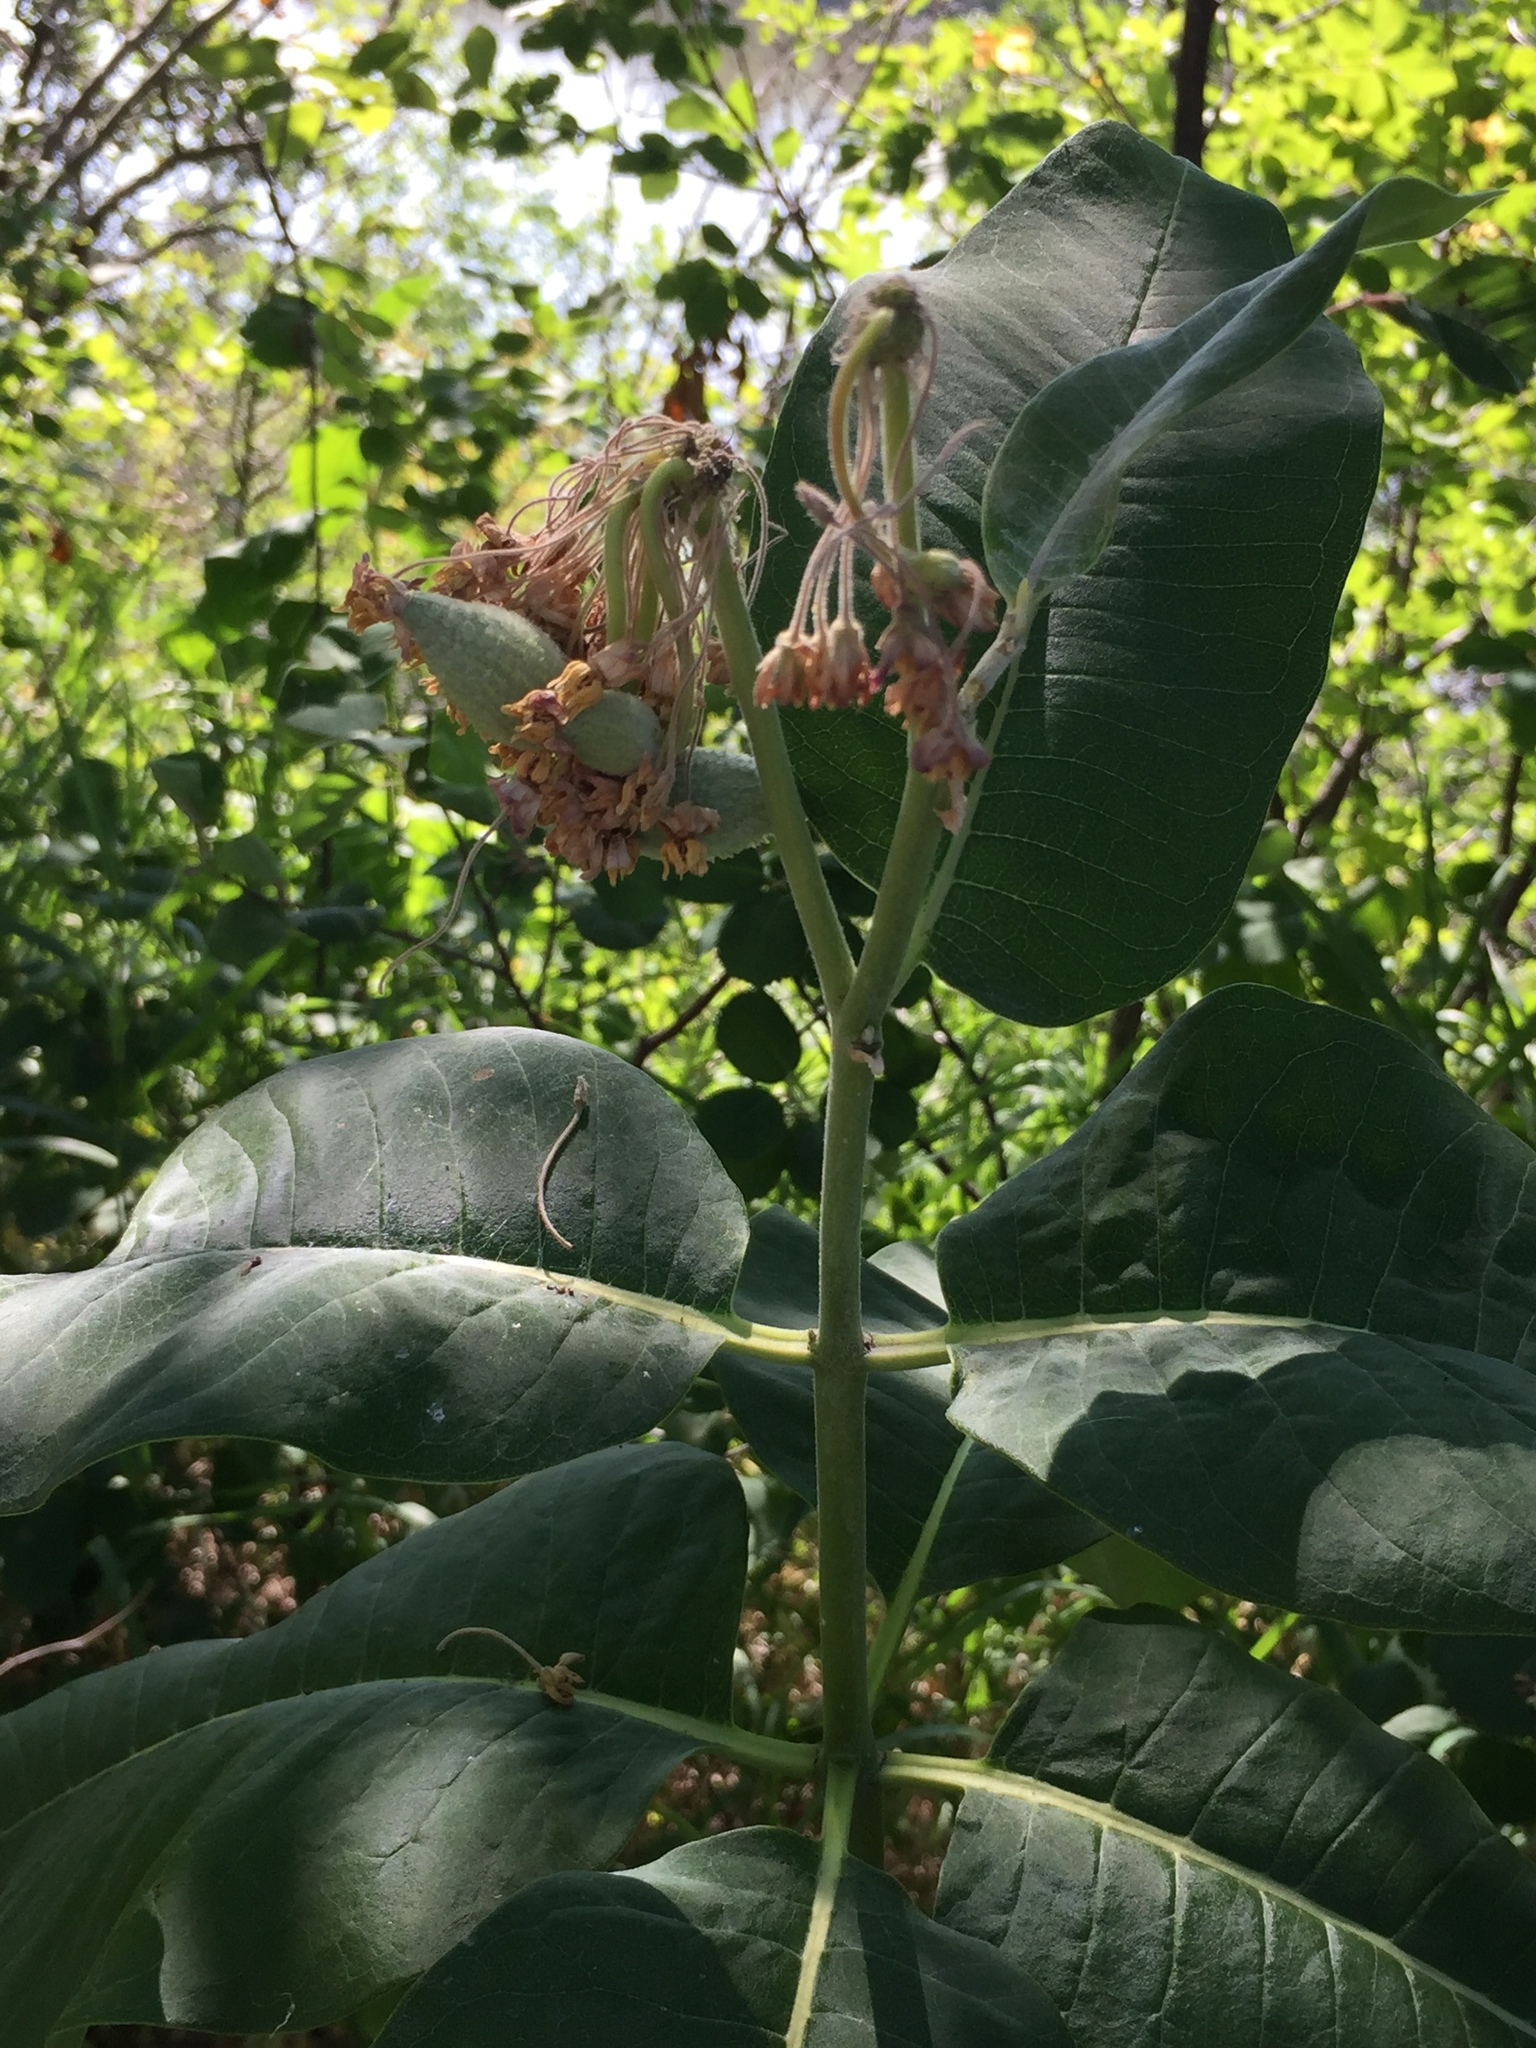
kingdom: Plantae
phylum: Tracheophyta
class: Magnoliopsida
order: Gentianales
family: Apocynaceae
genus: Asclepias
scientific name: Asclepias syriaca
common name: Common milkweed
